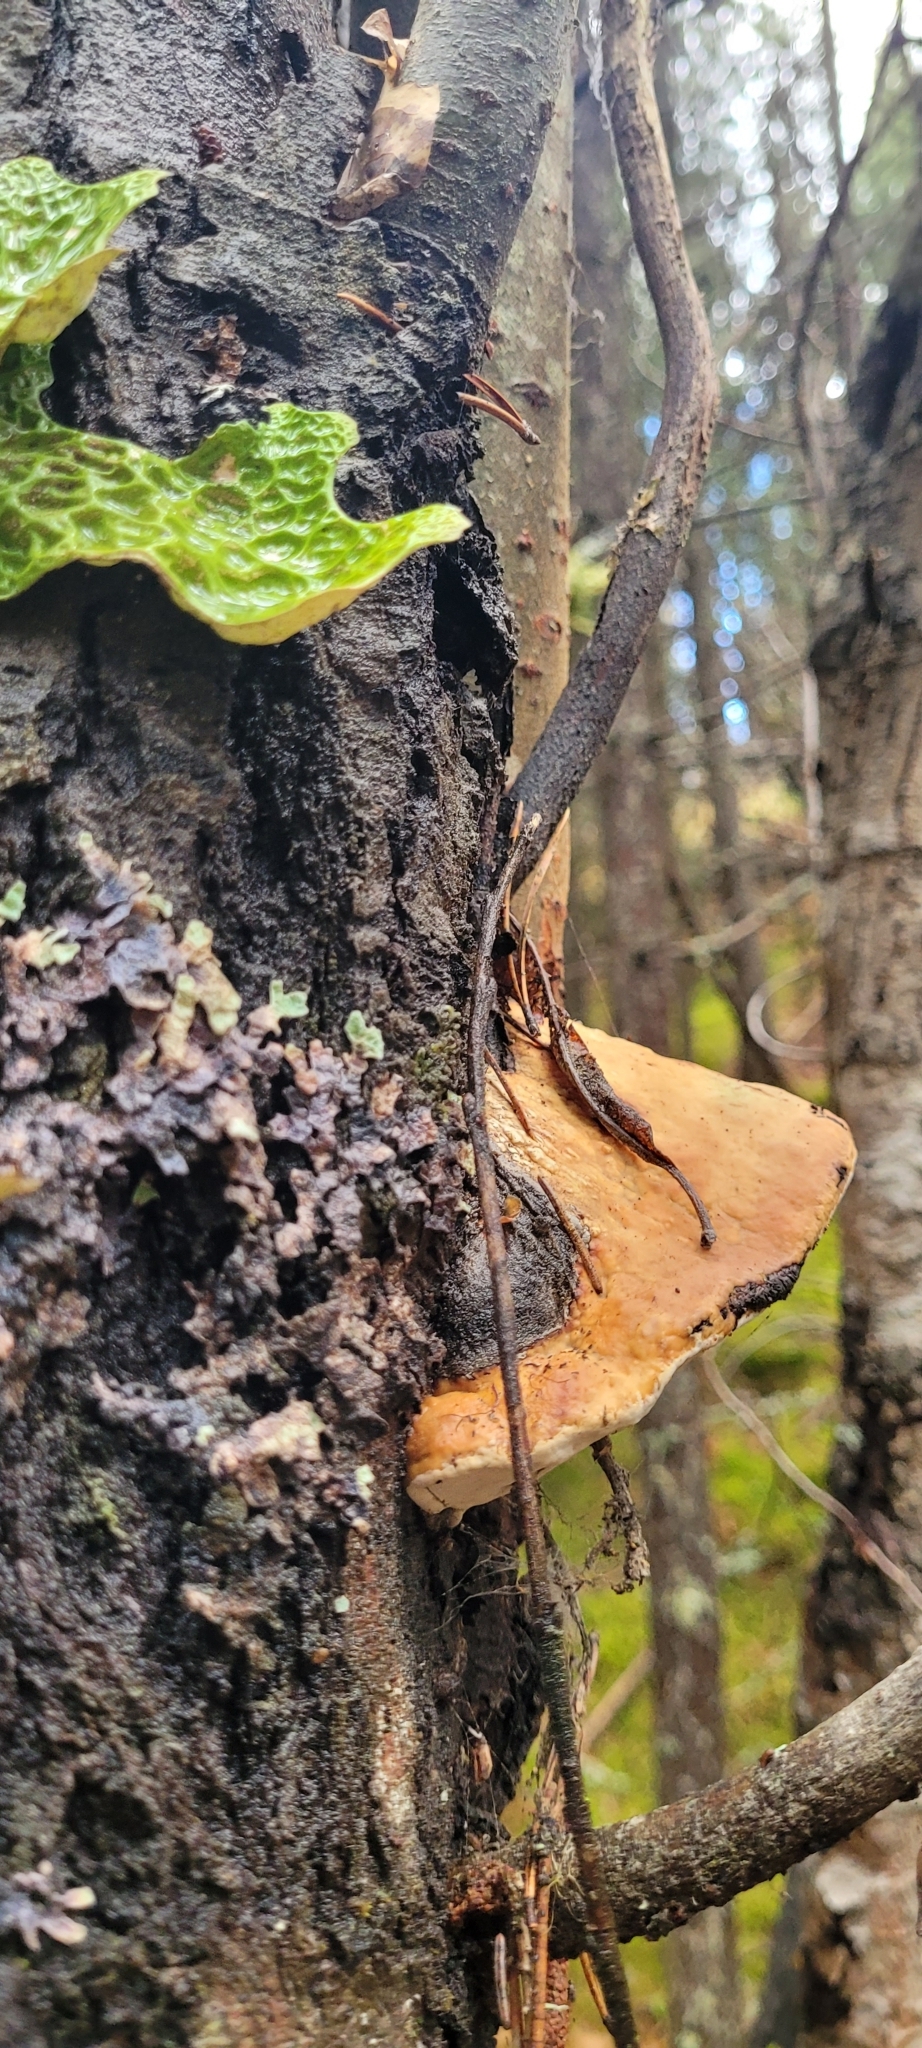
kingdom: Fungi
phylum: Basidiomycota
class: Agaricomycetes
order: Polyporales
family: Fomitopsidaceae
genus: Fomitopsis
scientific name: Fomitopsis betulina
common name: Birch polypore
